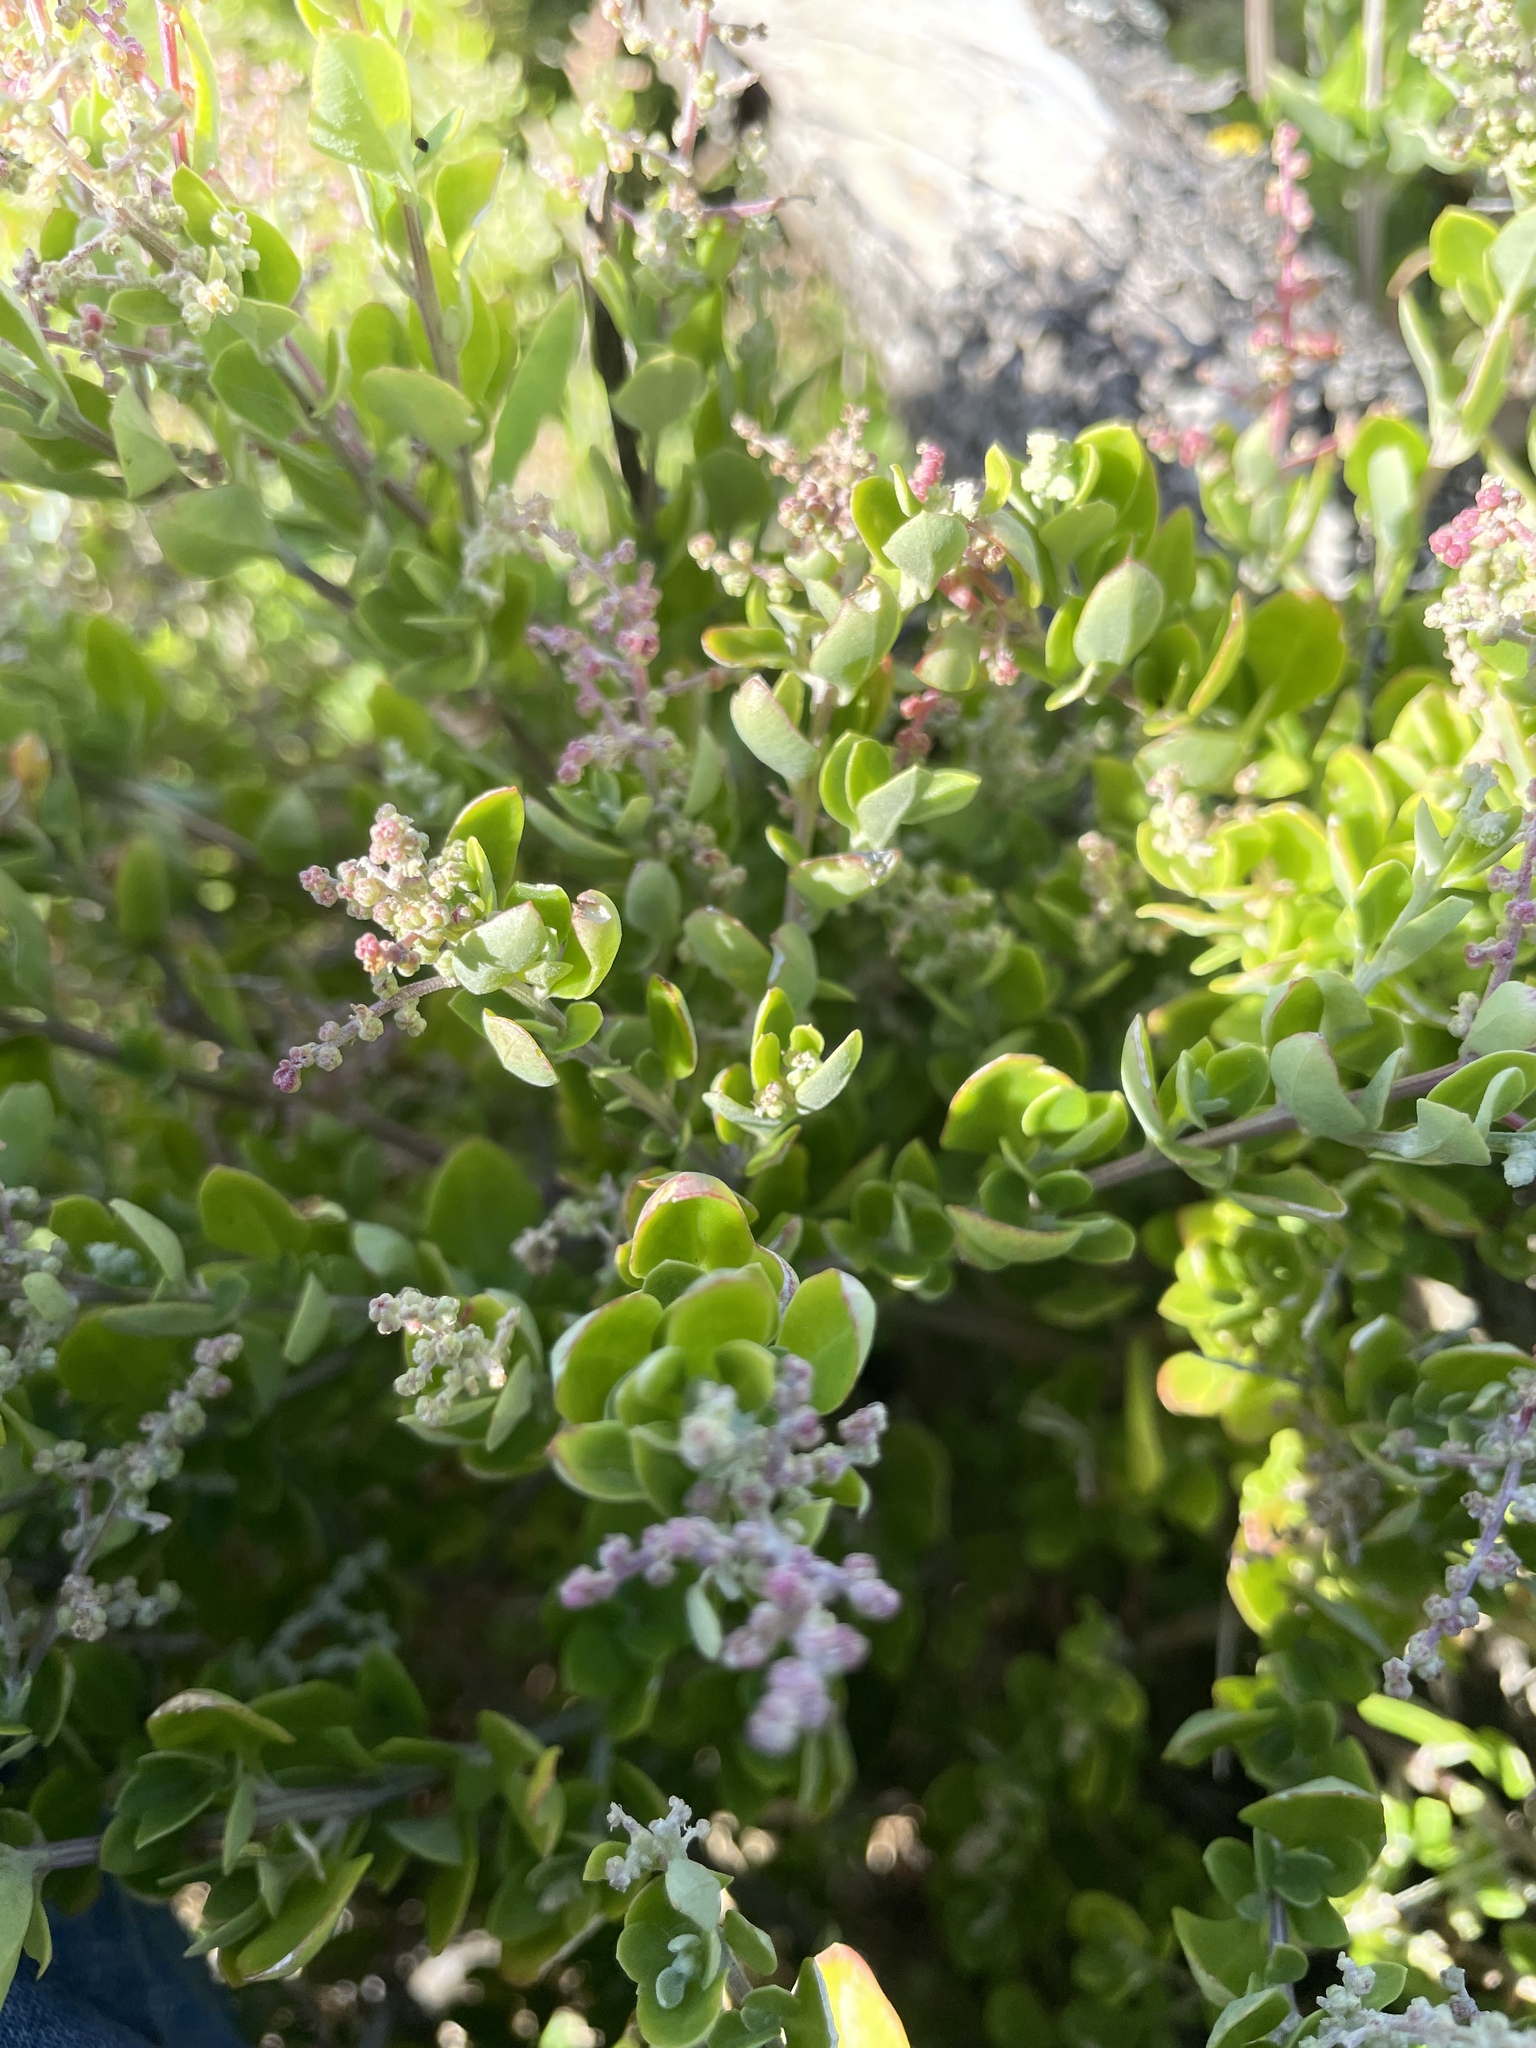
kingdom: Plantae
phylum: Tracheophyta
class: Magnoliopsida
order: Caryophyllales
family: Amaranthaceae
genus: Chenopodium
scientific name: Chenopodium candolleanum
